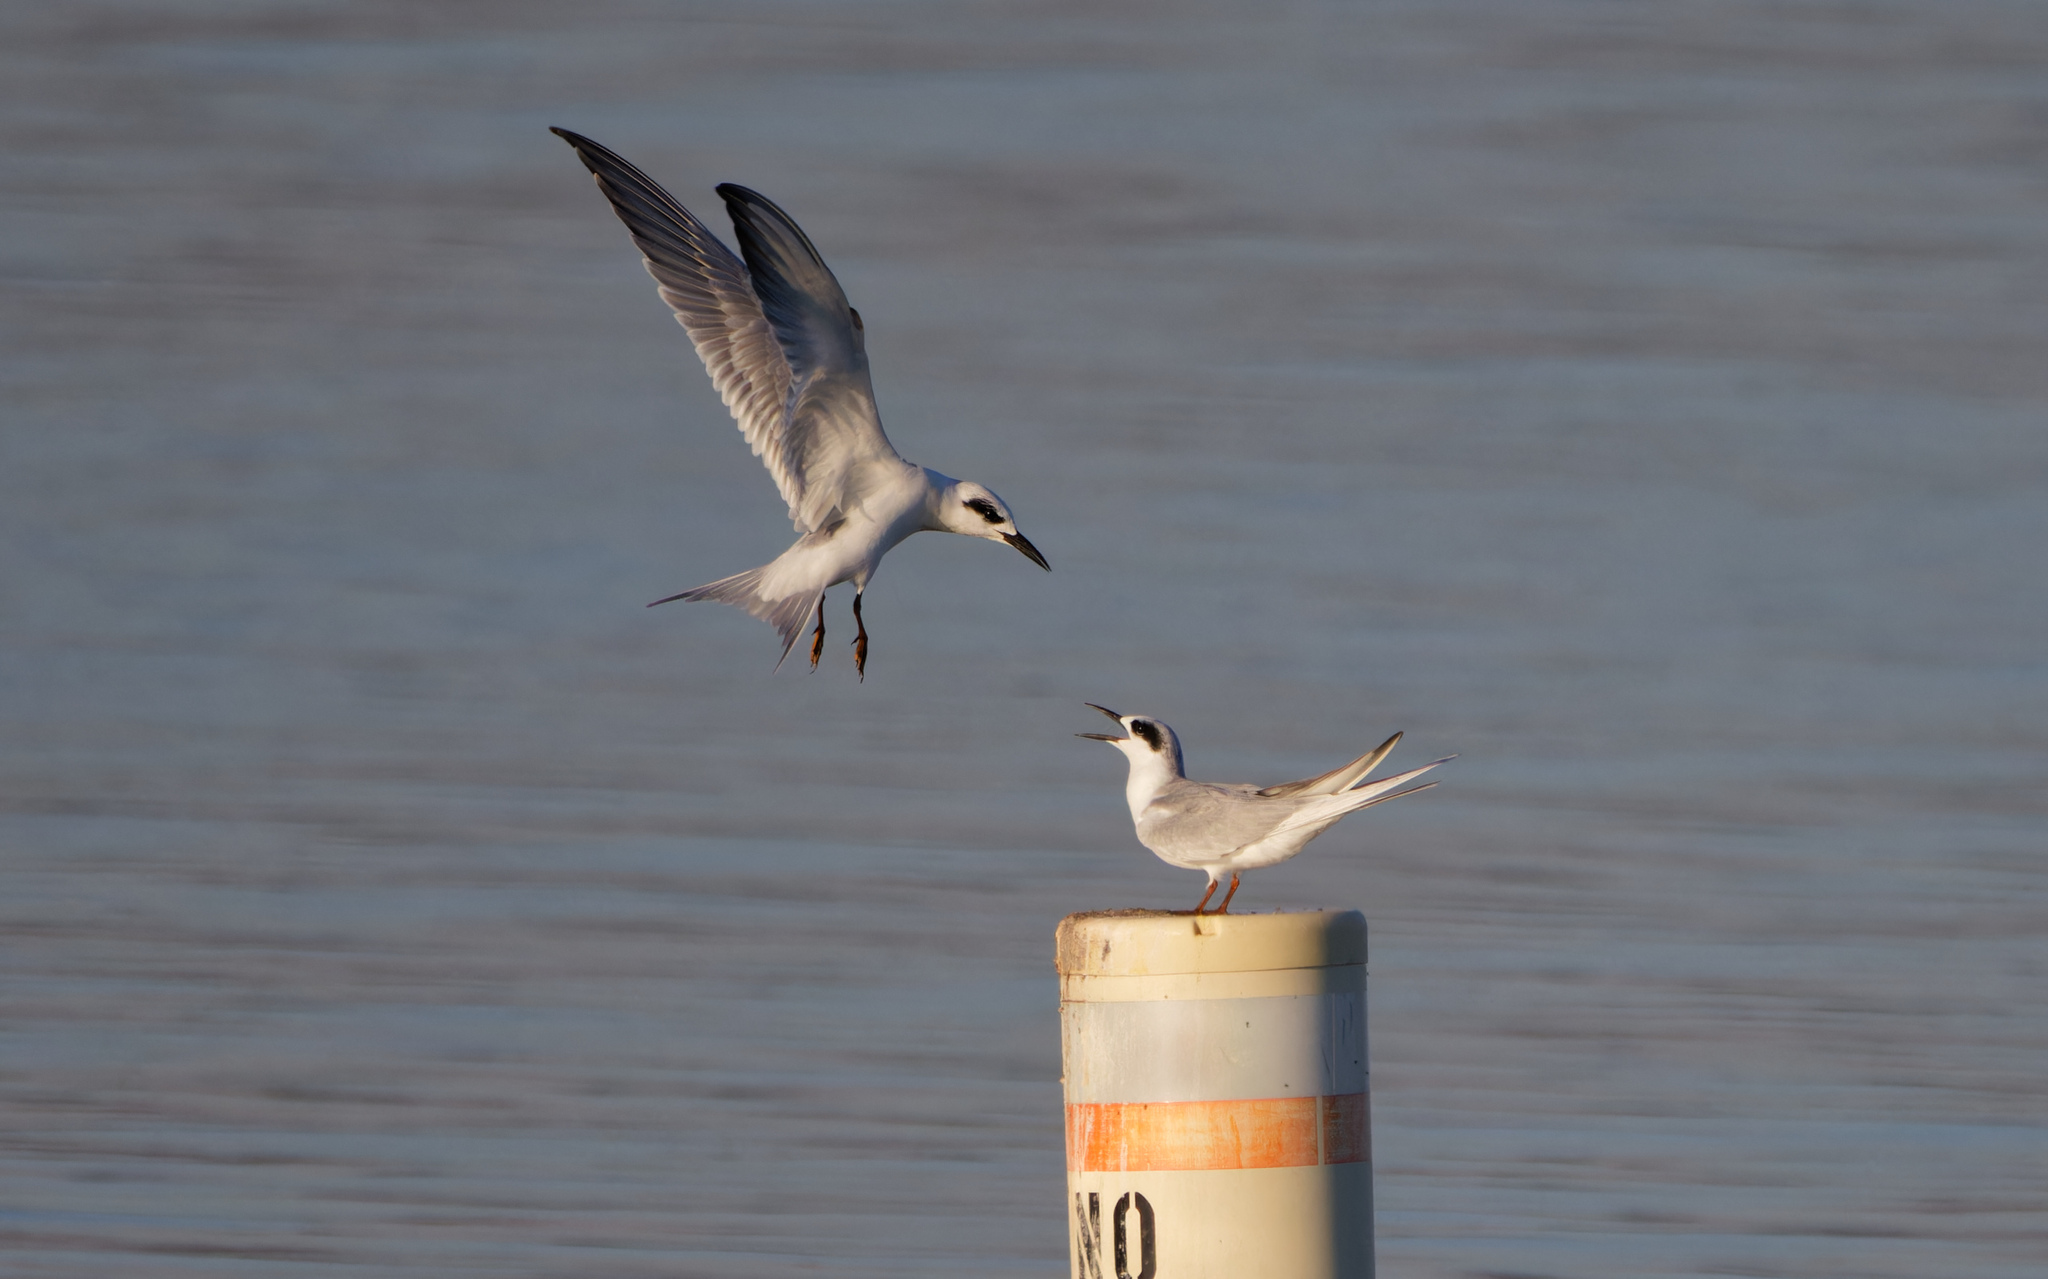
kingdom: Animalia
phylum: Chordata
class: Aves
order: Charadriiformes
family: Laridae
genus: Sterna
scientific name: Sterna forsteri
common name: Forster's tern
